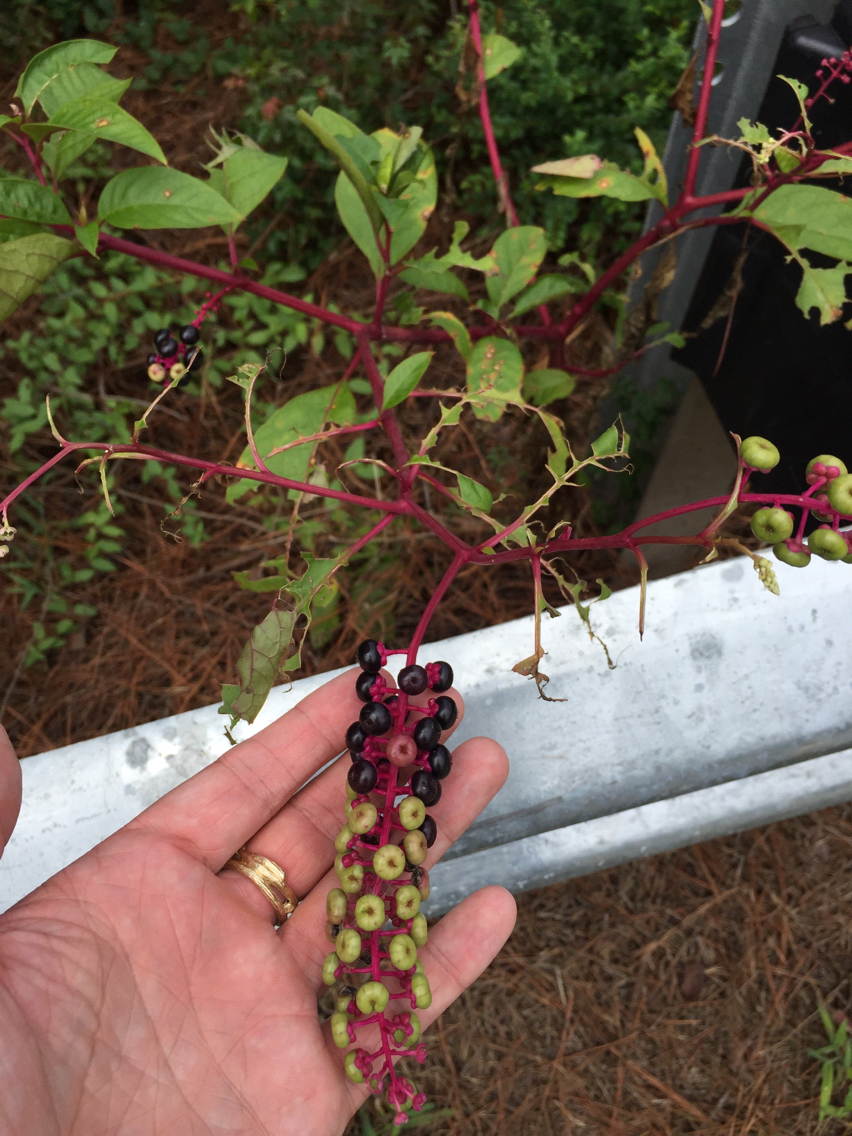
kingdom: Plantae
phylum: Tracheophyta
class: Magnoliopsida
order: Caryophyllales
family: Phytolaccaceae
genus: Phytolacca
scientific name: Phytolacca americana
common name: American pokeweed
